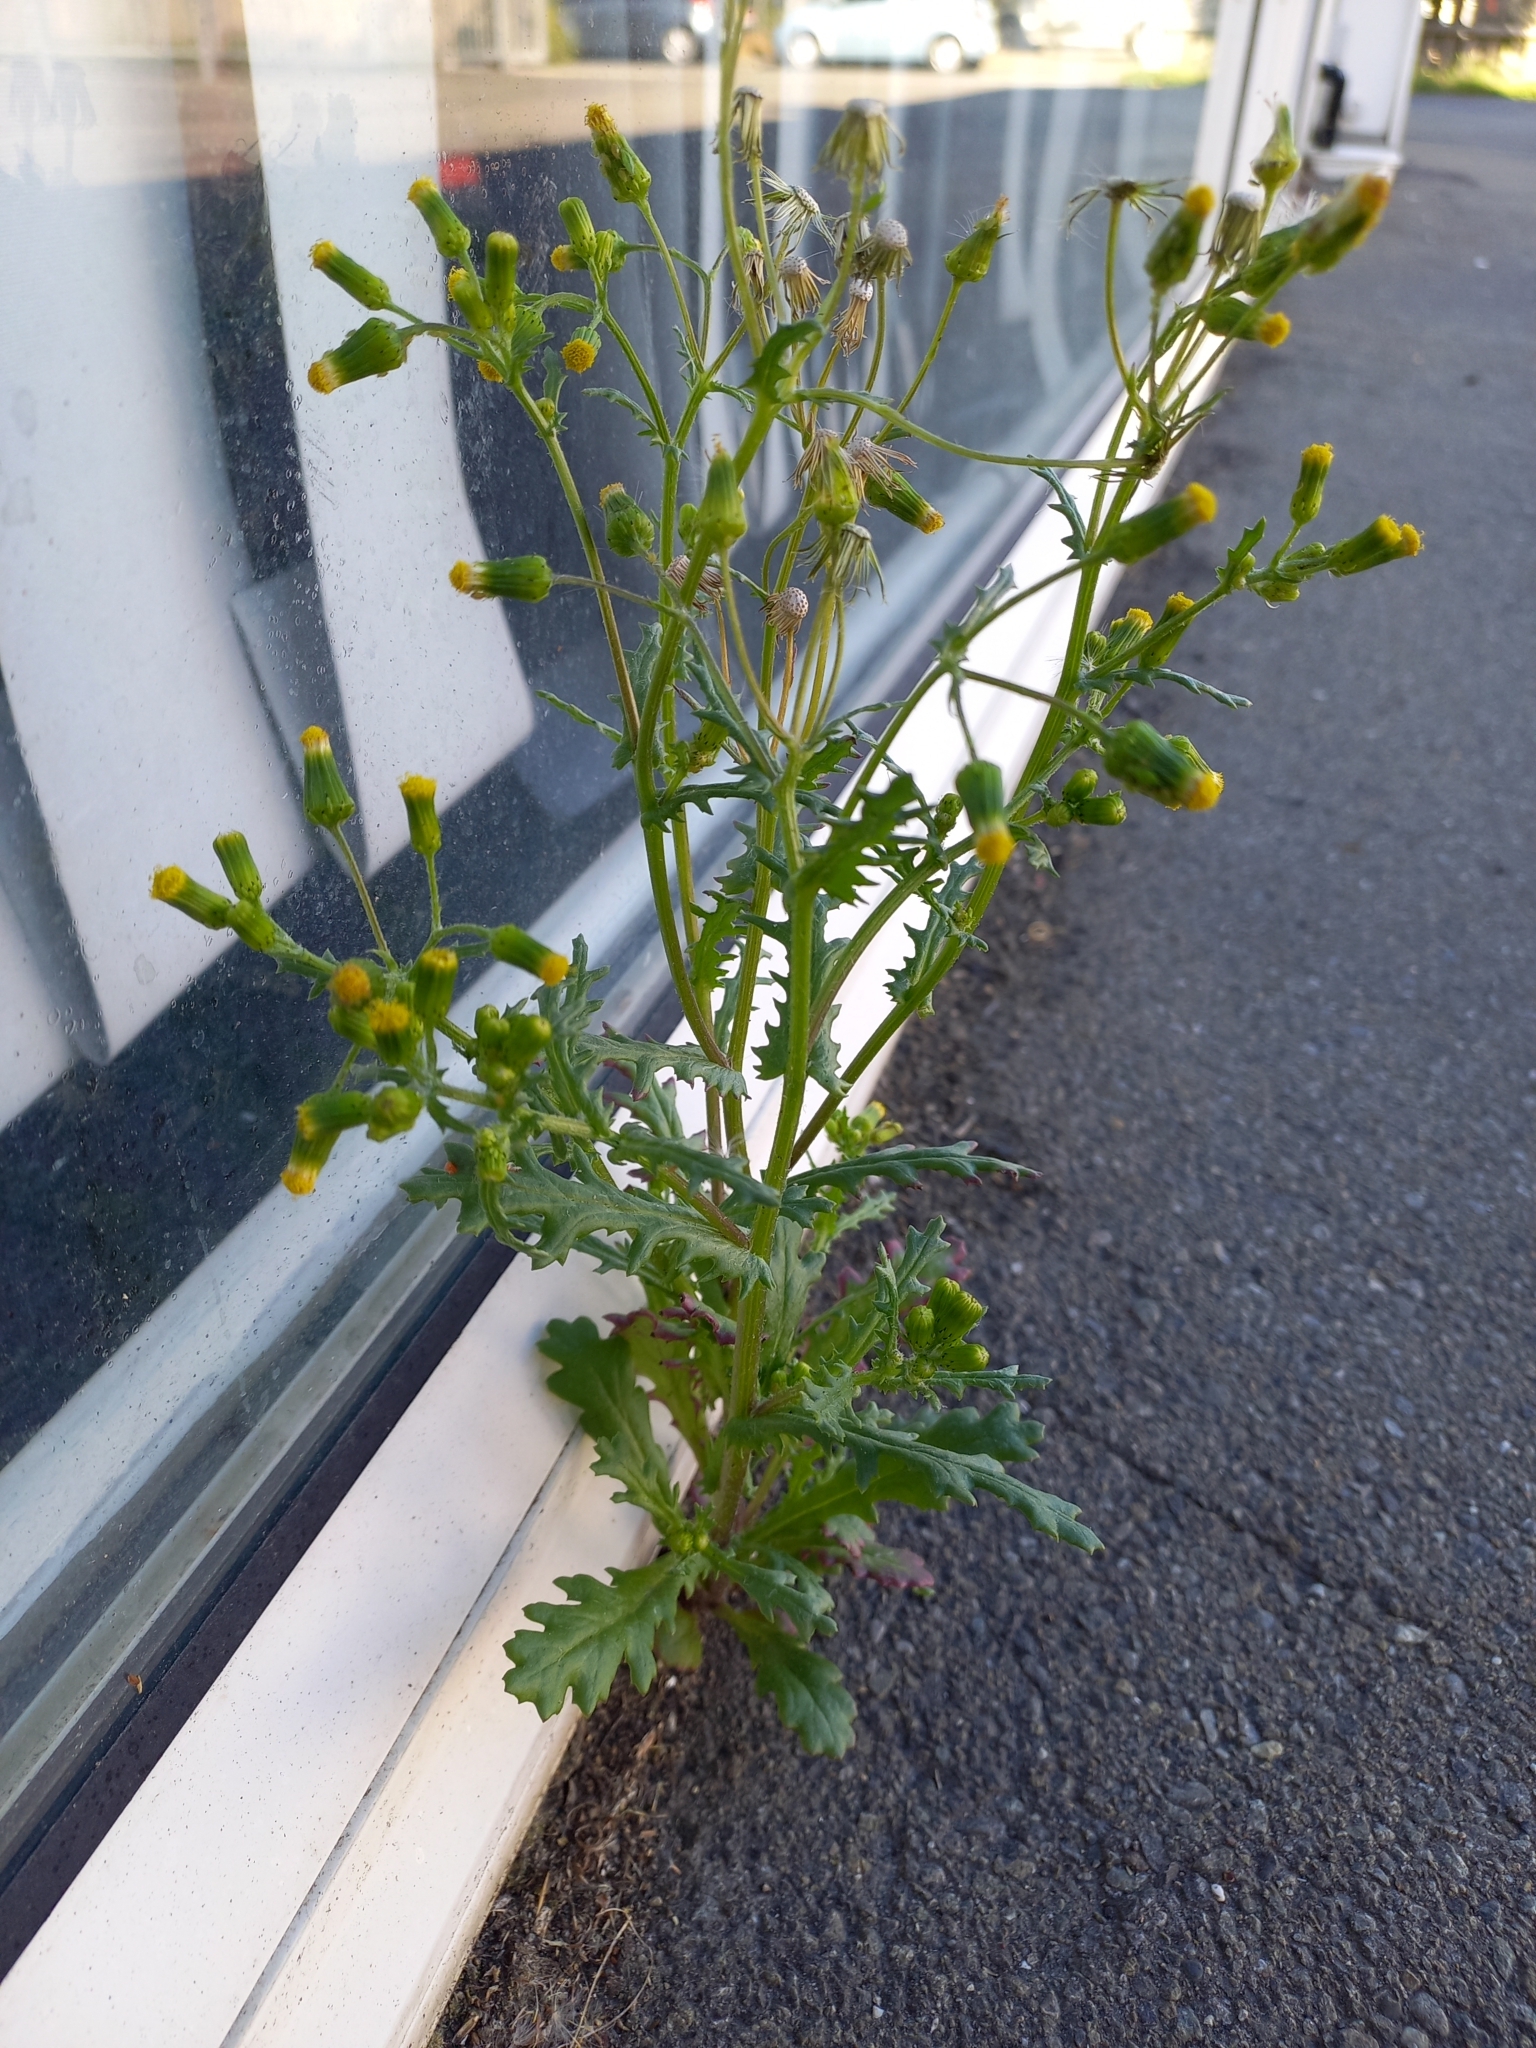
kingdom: Plantae
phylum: Tracheophyta
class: Magnoliopsida
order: Asterales
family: Asteraceae
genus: Senecio
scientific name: Senecio vulgaris
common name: Old-man-in-the-spring
